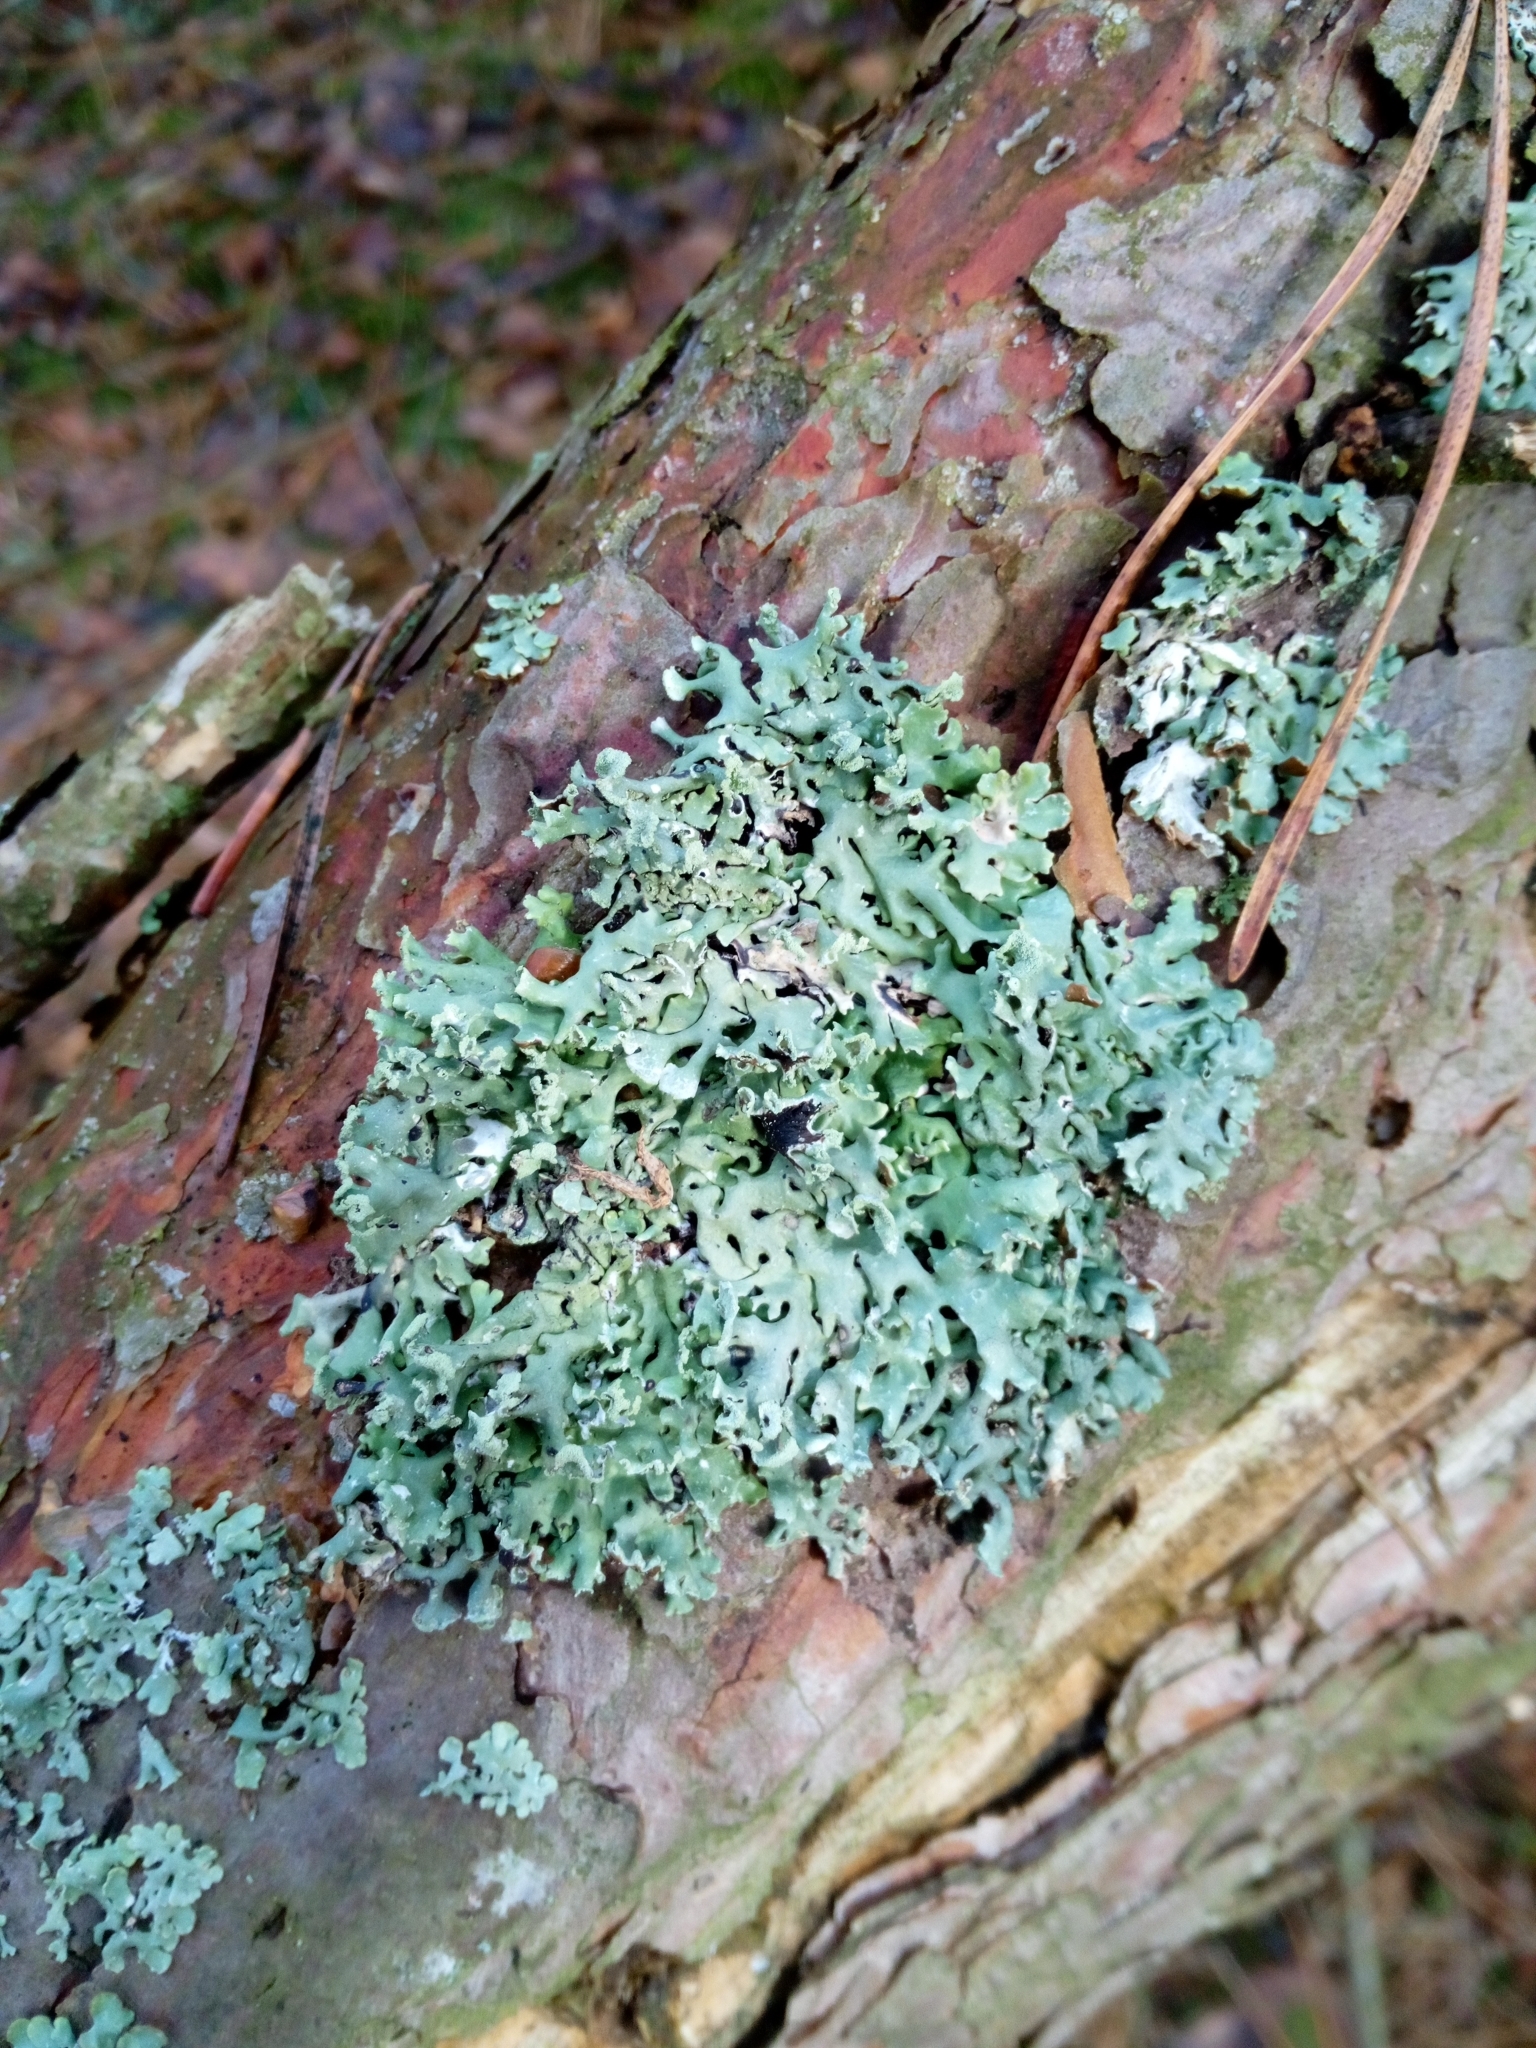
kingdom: Fungi
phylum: Ascomycota
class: Lecanoromycetes
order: Lecanorales
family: Parmeliaceae
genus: Hypogymnia
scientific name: Hypogymnia physodes
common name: Dark crottle
